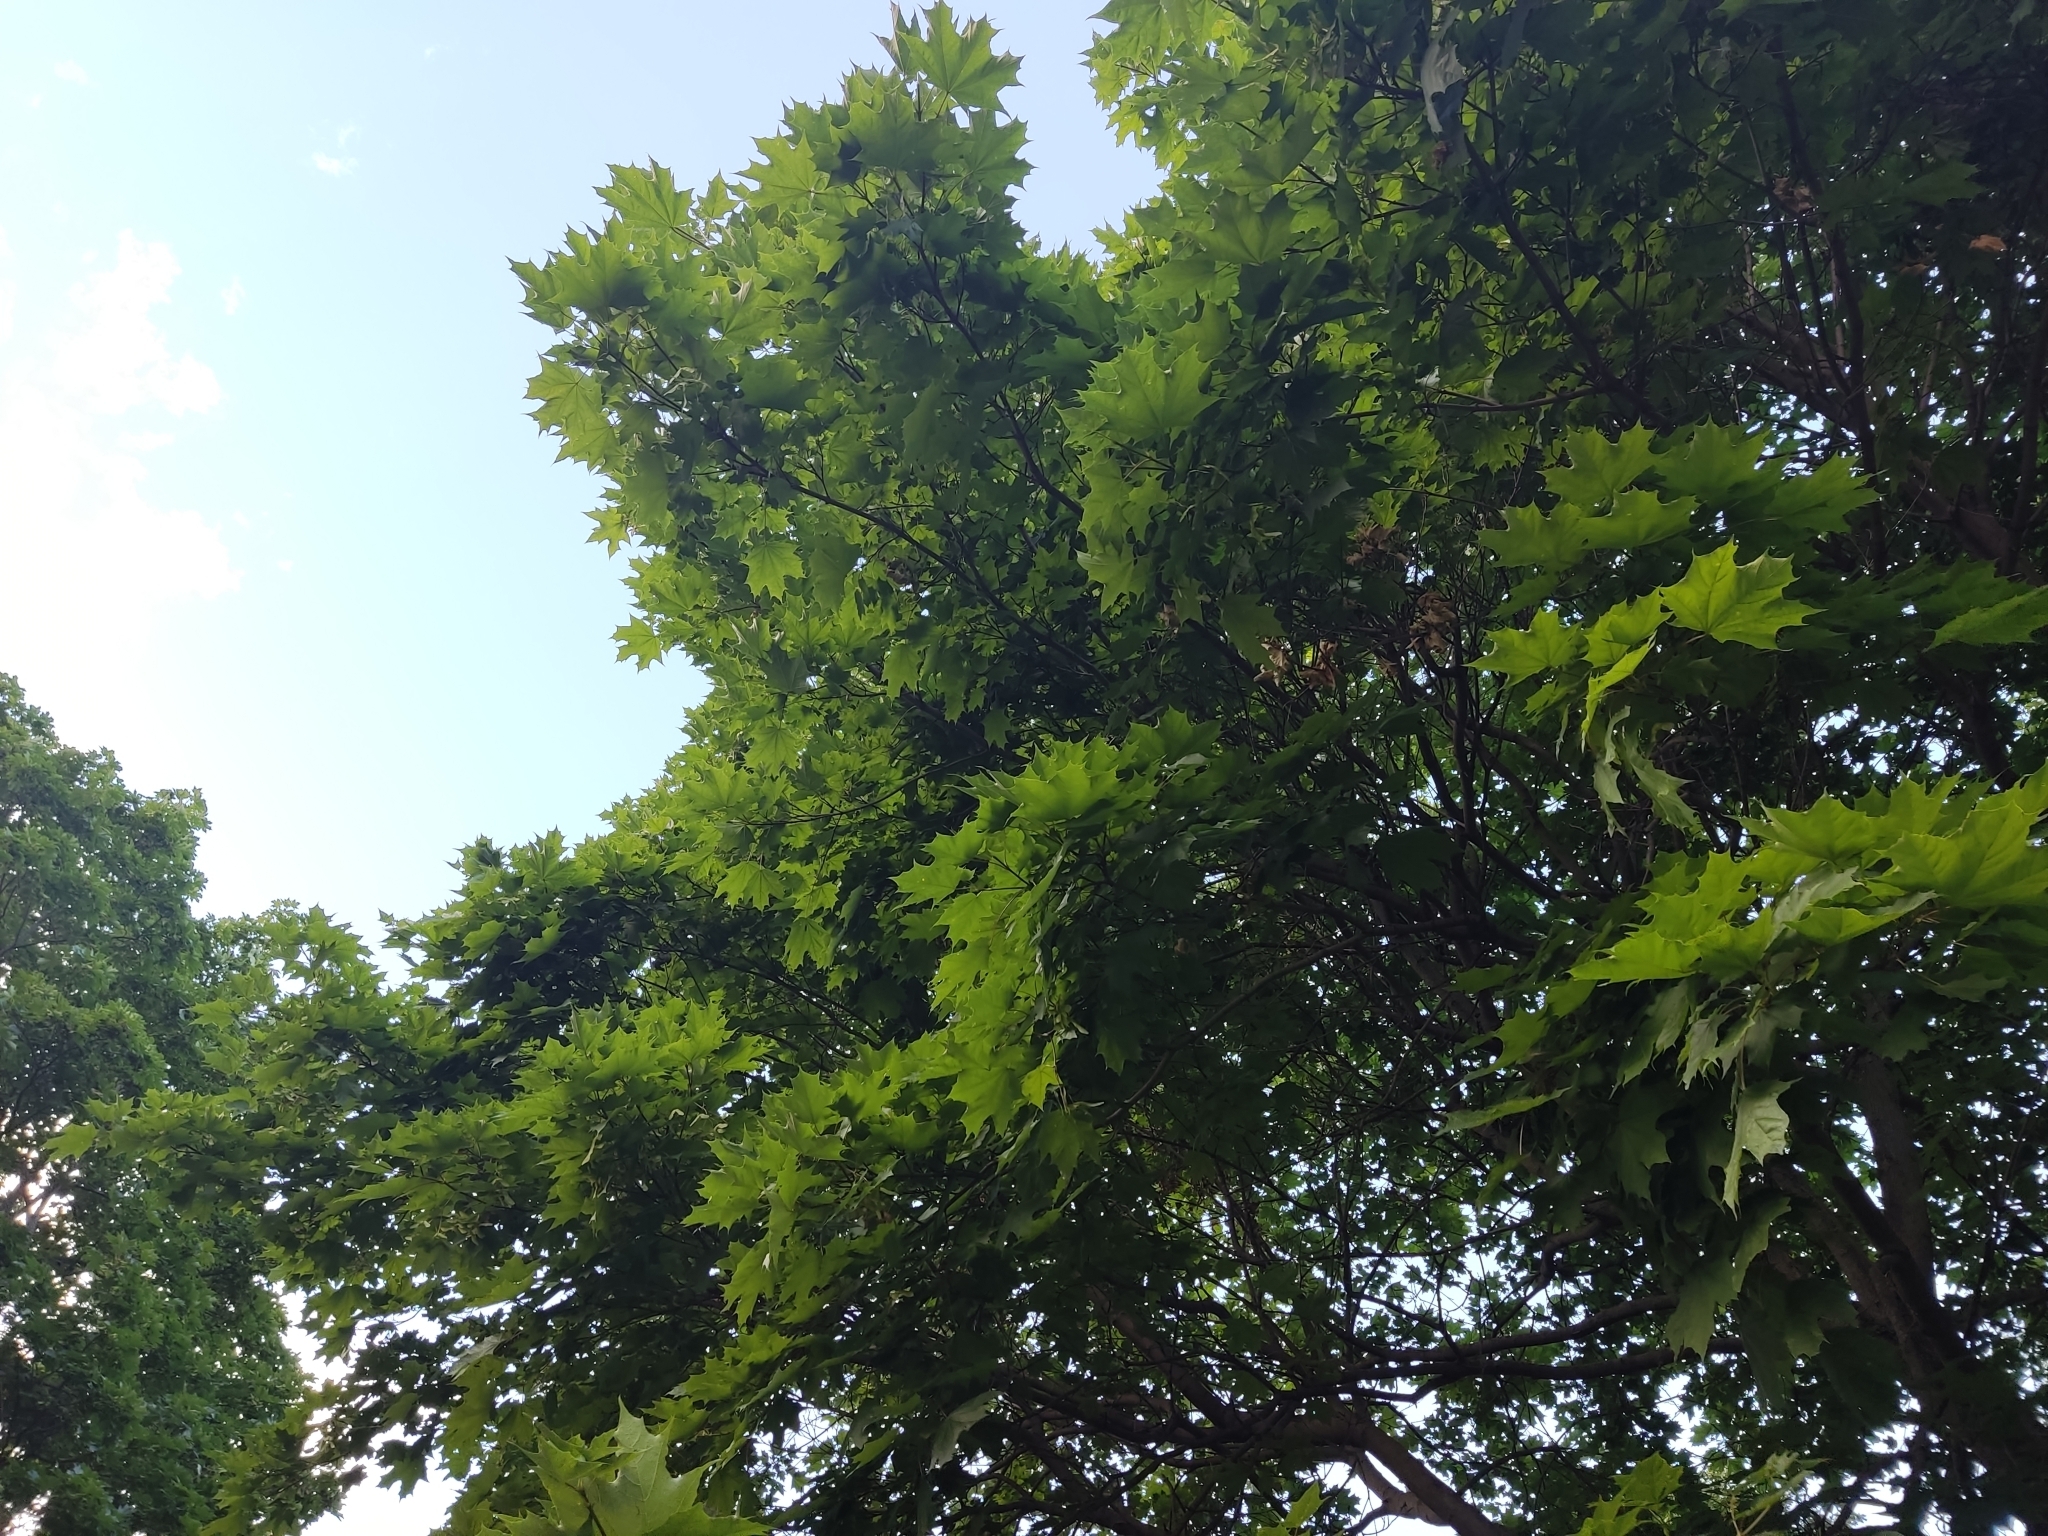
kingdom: Plantae
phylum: Tracheophyta
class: Magnoliopsida
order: Sapindales
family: Sapindaceae
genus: Acer
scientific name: Acer platanoides
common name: Norway maple
